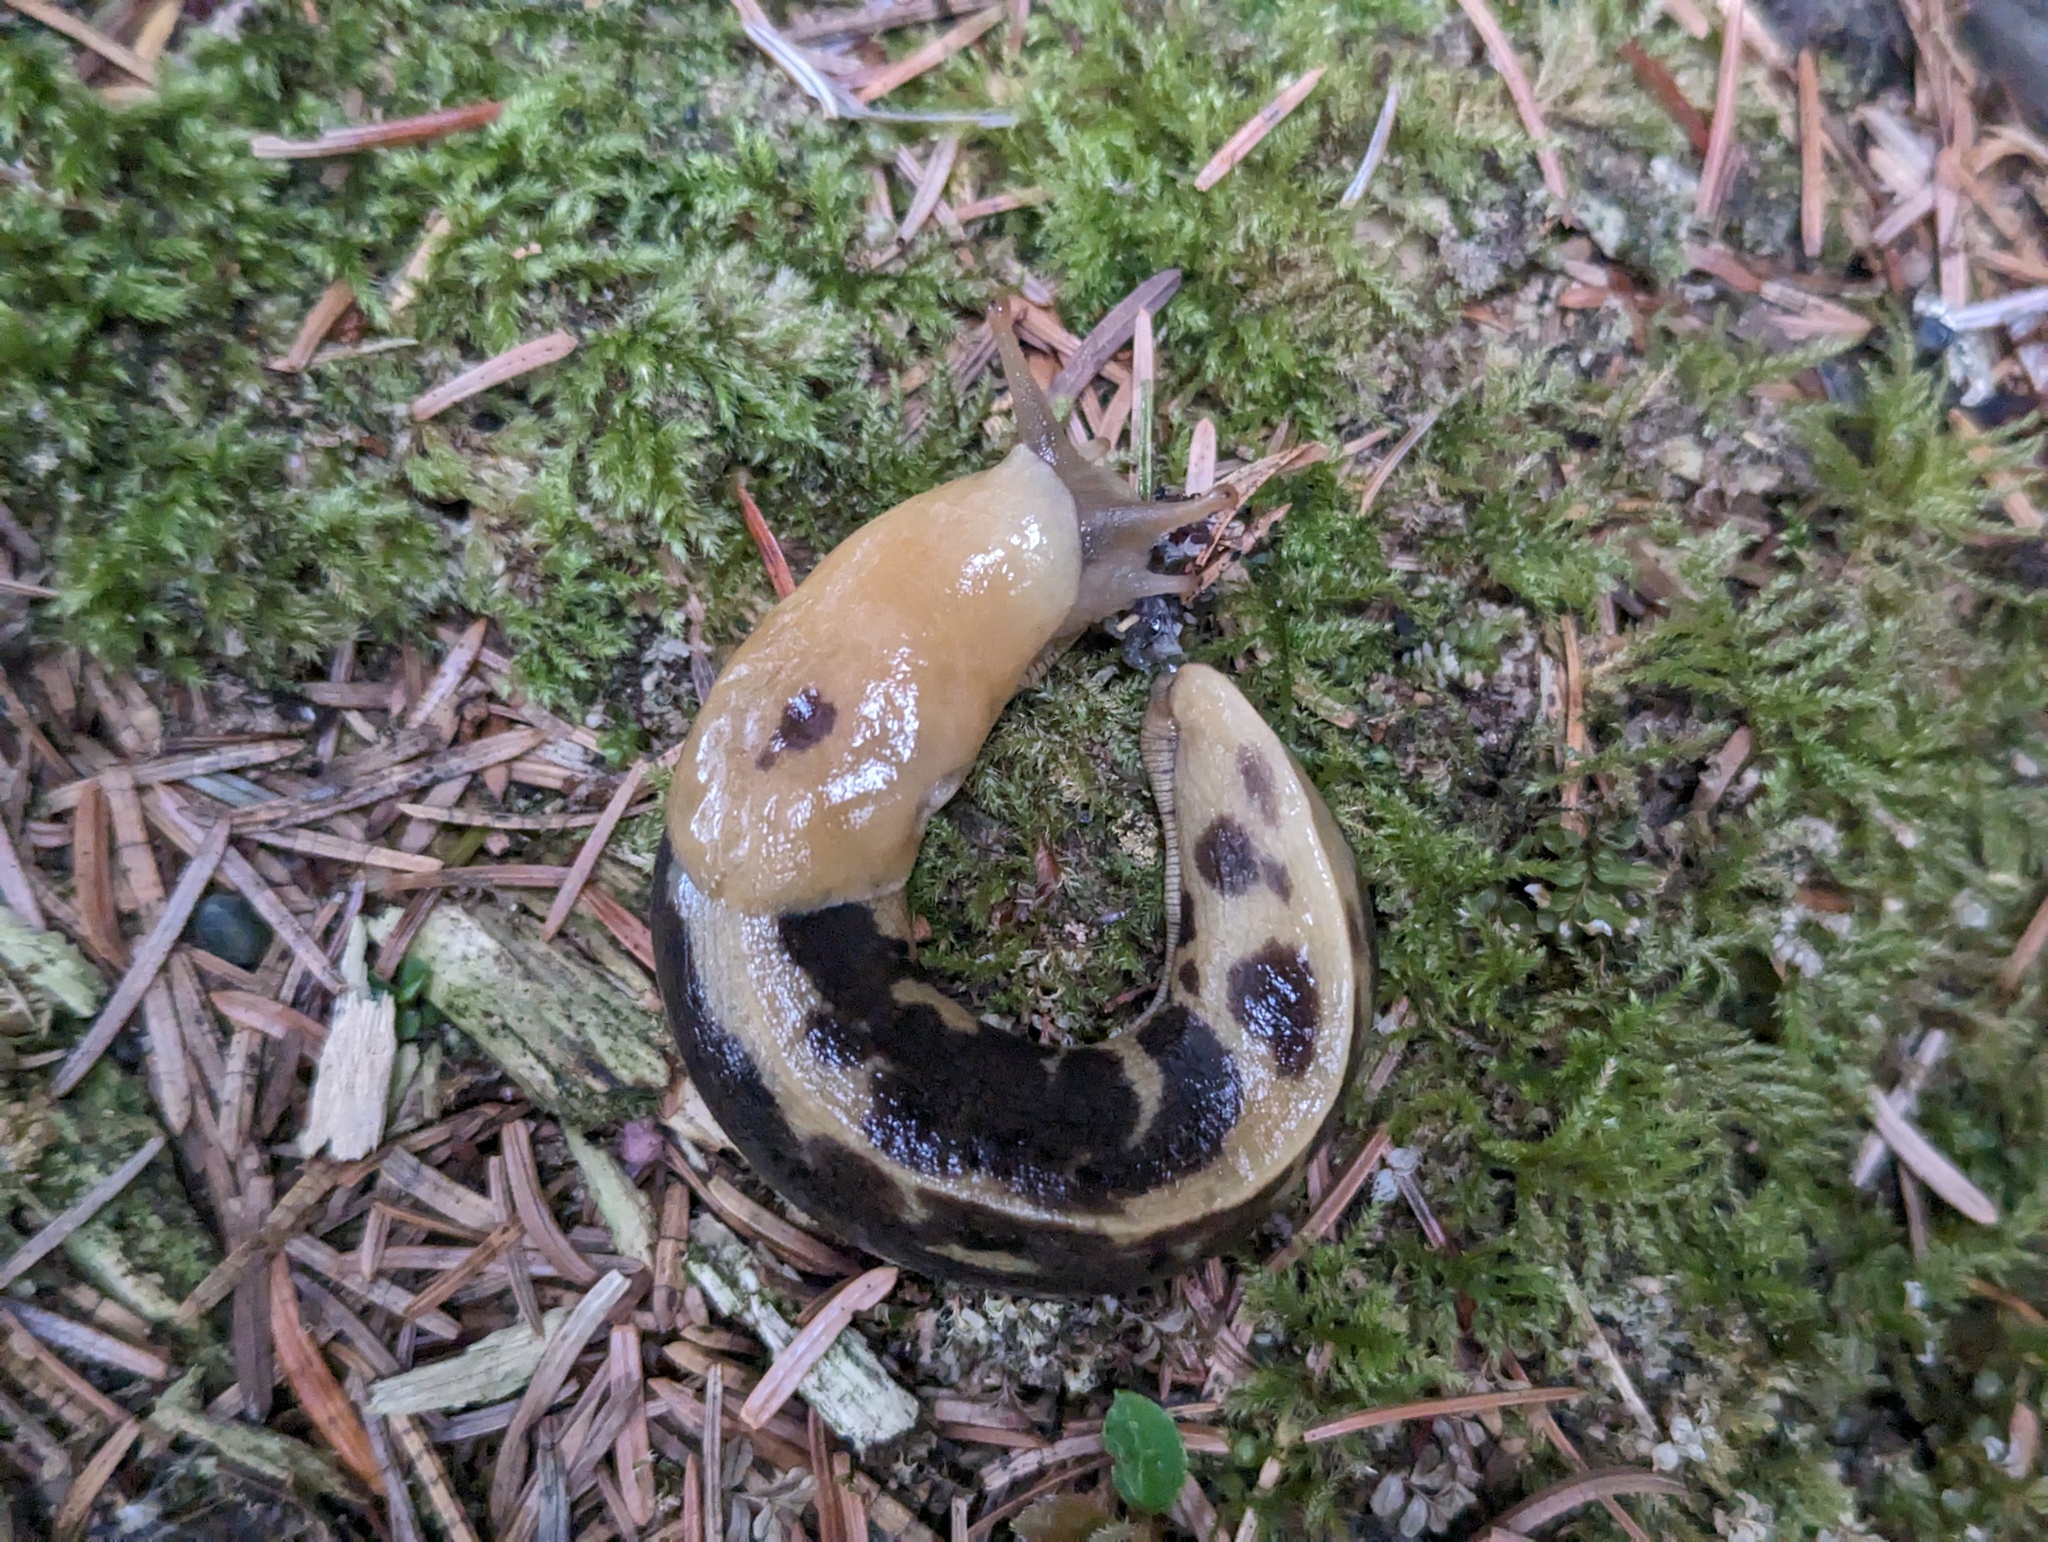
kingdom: Animalia
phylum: Mollusca
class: Gastropoda
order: Stylommatophora
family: Ariolimacidae
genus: Ariolimax
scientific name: Ariolimax columbianus
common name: Pacific banana slug
